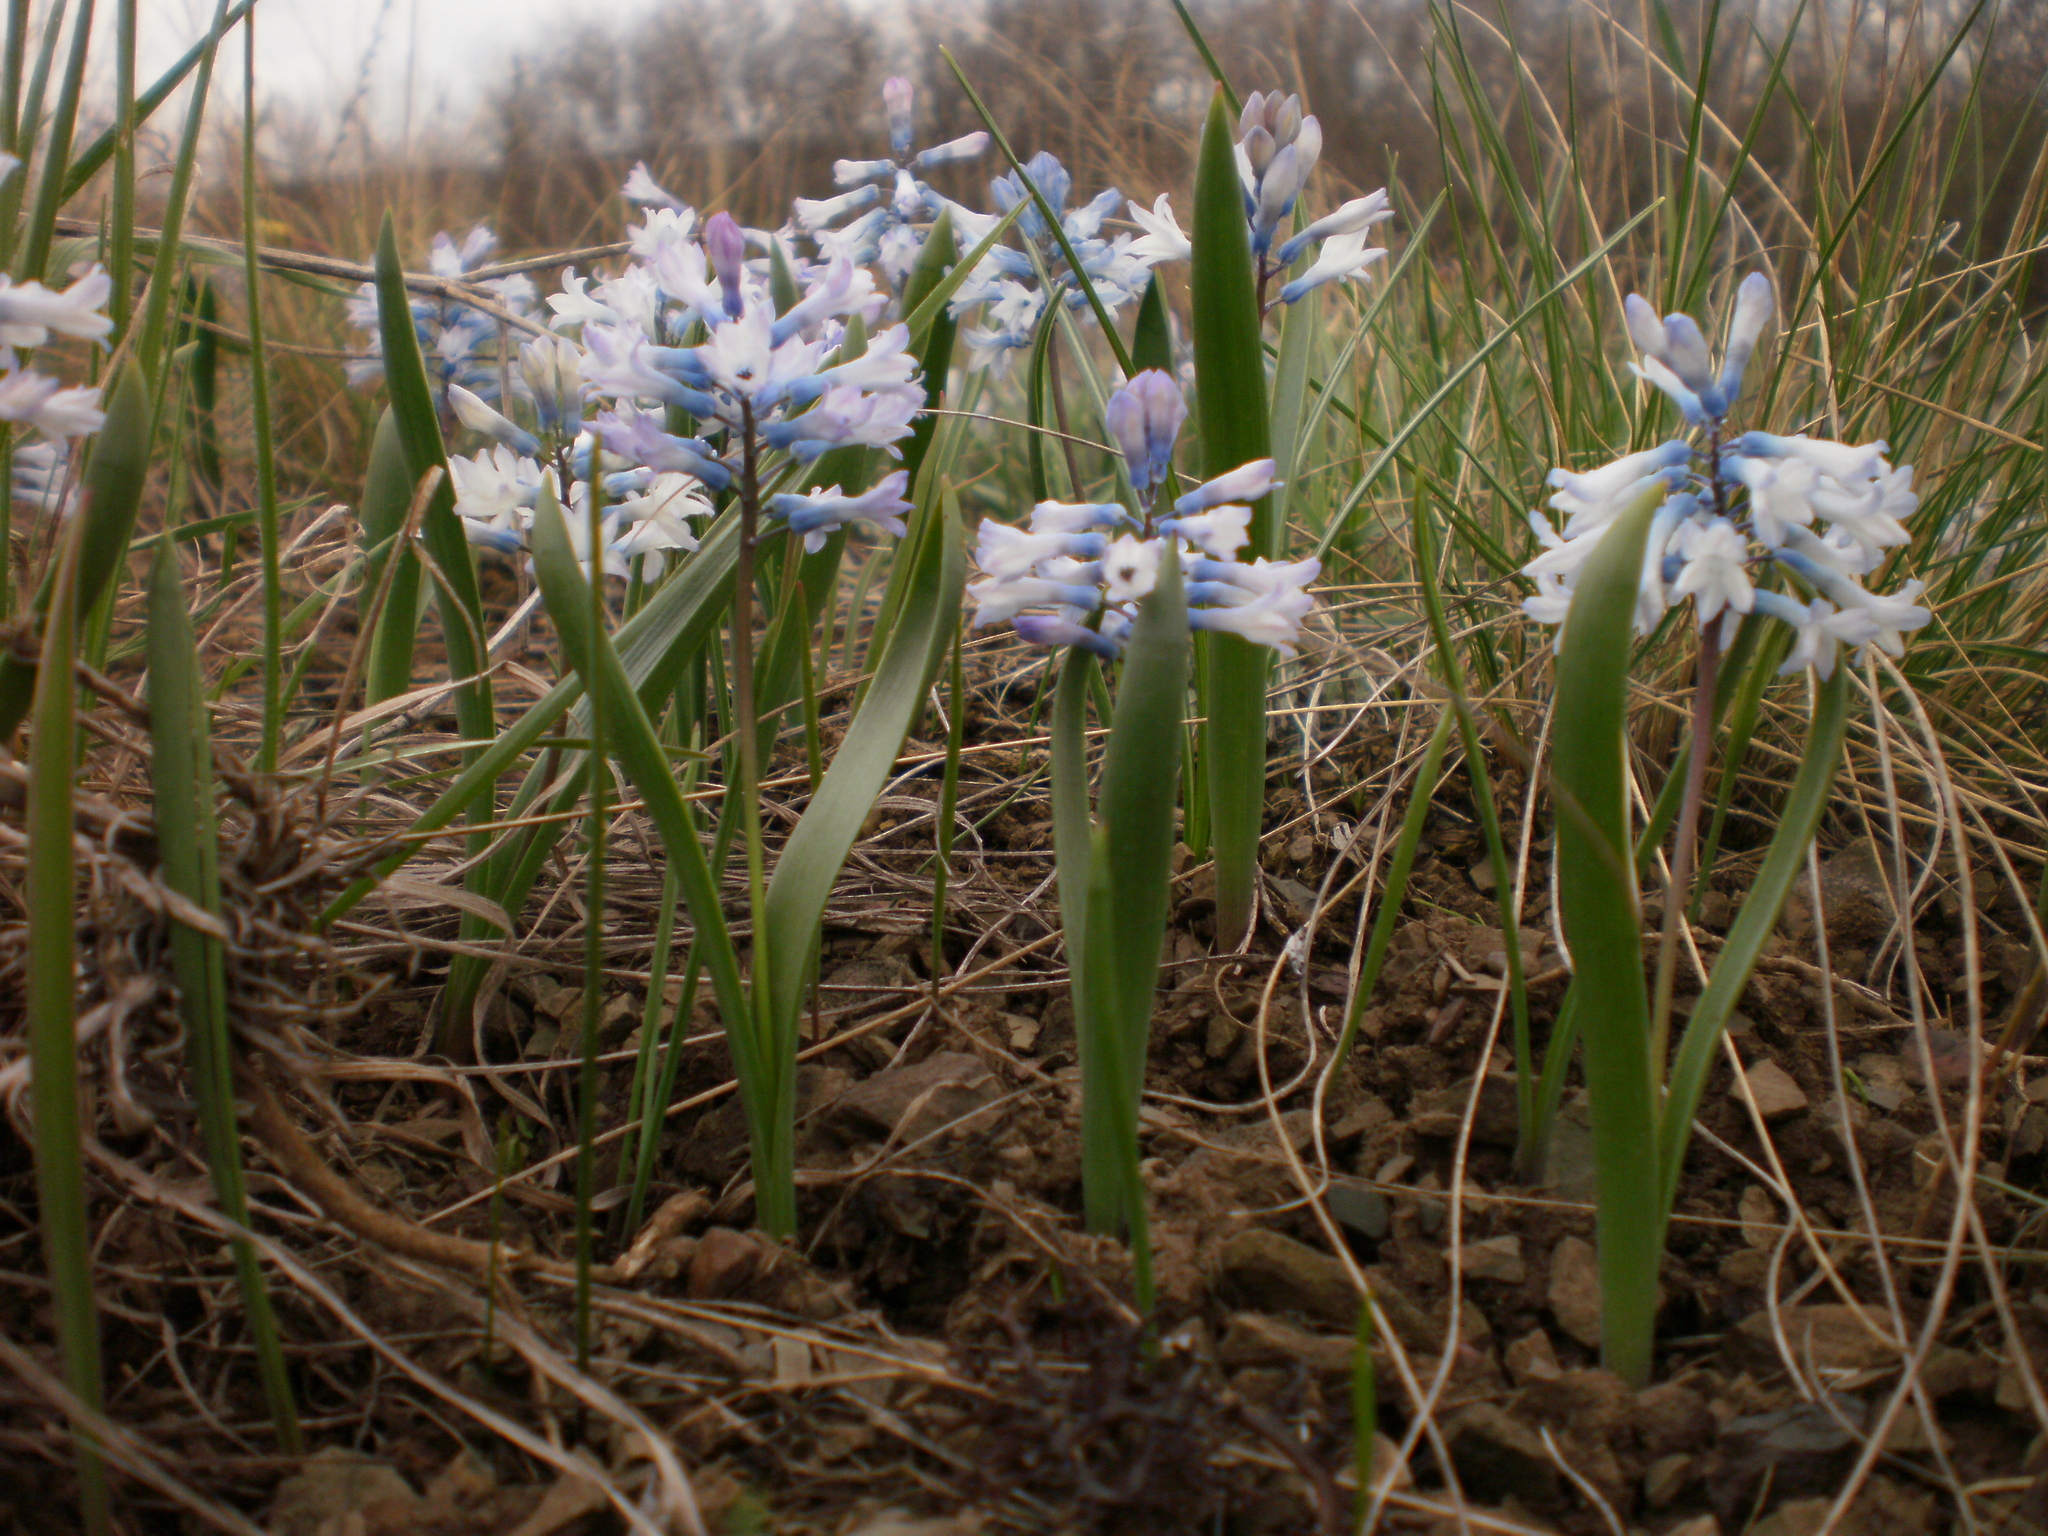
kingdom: Plantae
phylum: Tracheophyta
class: Liliopsida
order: Asparagales
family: Asparagaceae
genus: Hyacinthella
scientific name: Hyacinthella pallasiana
